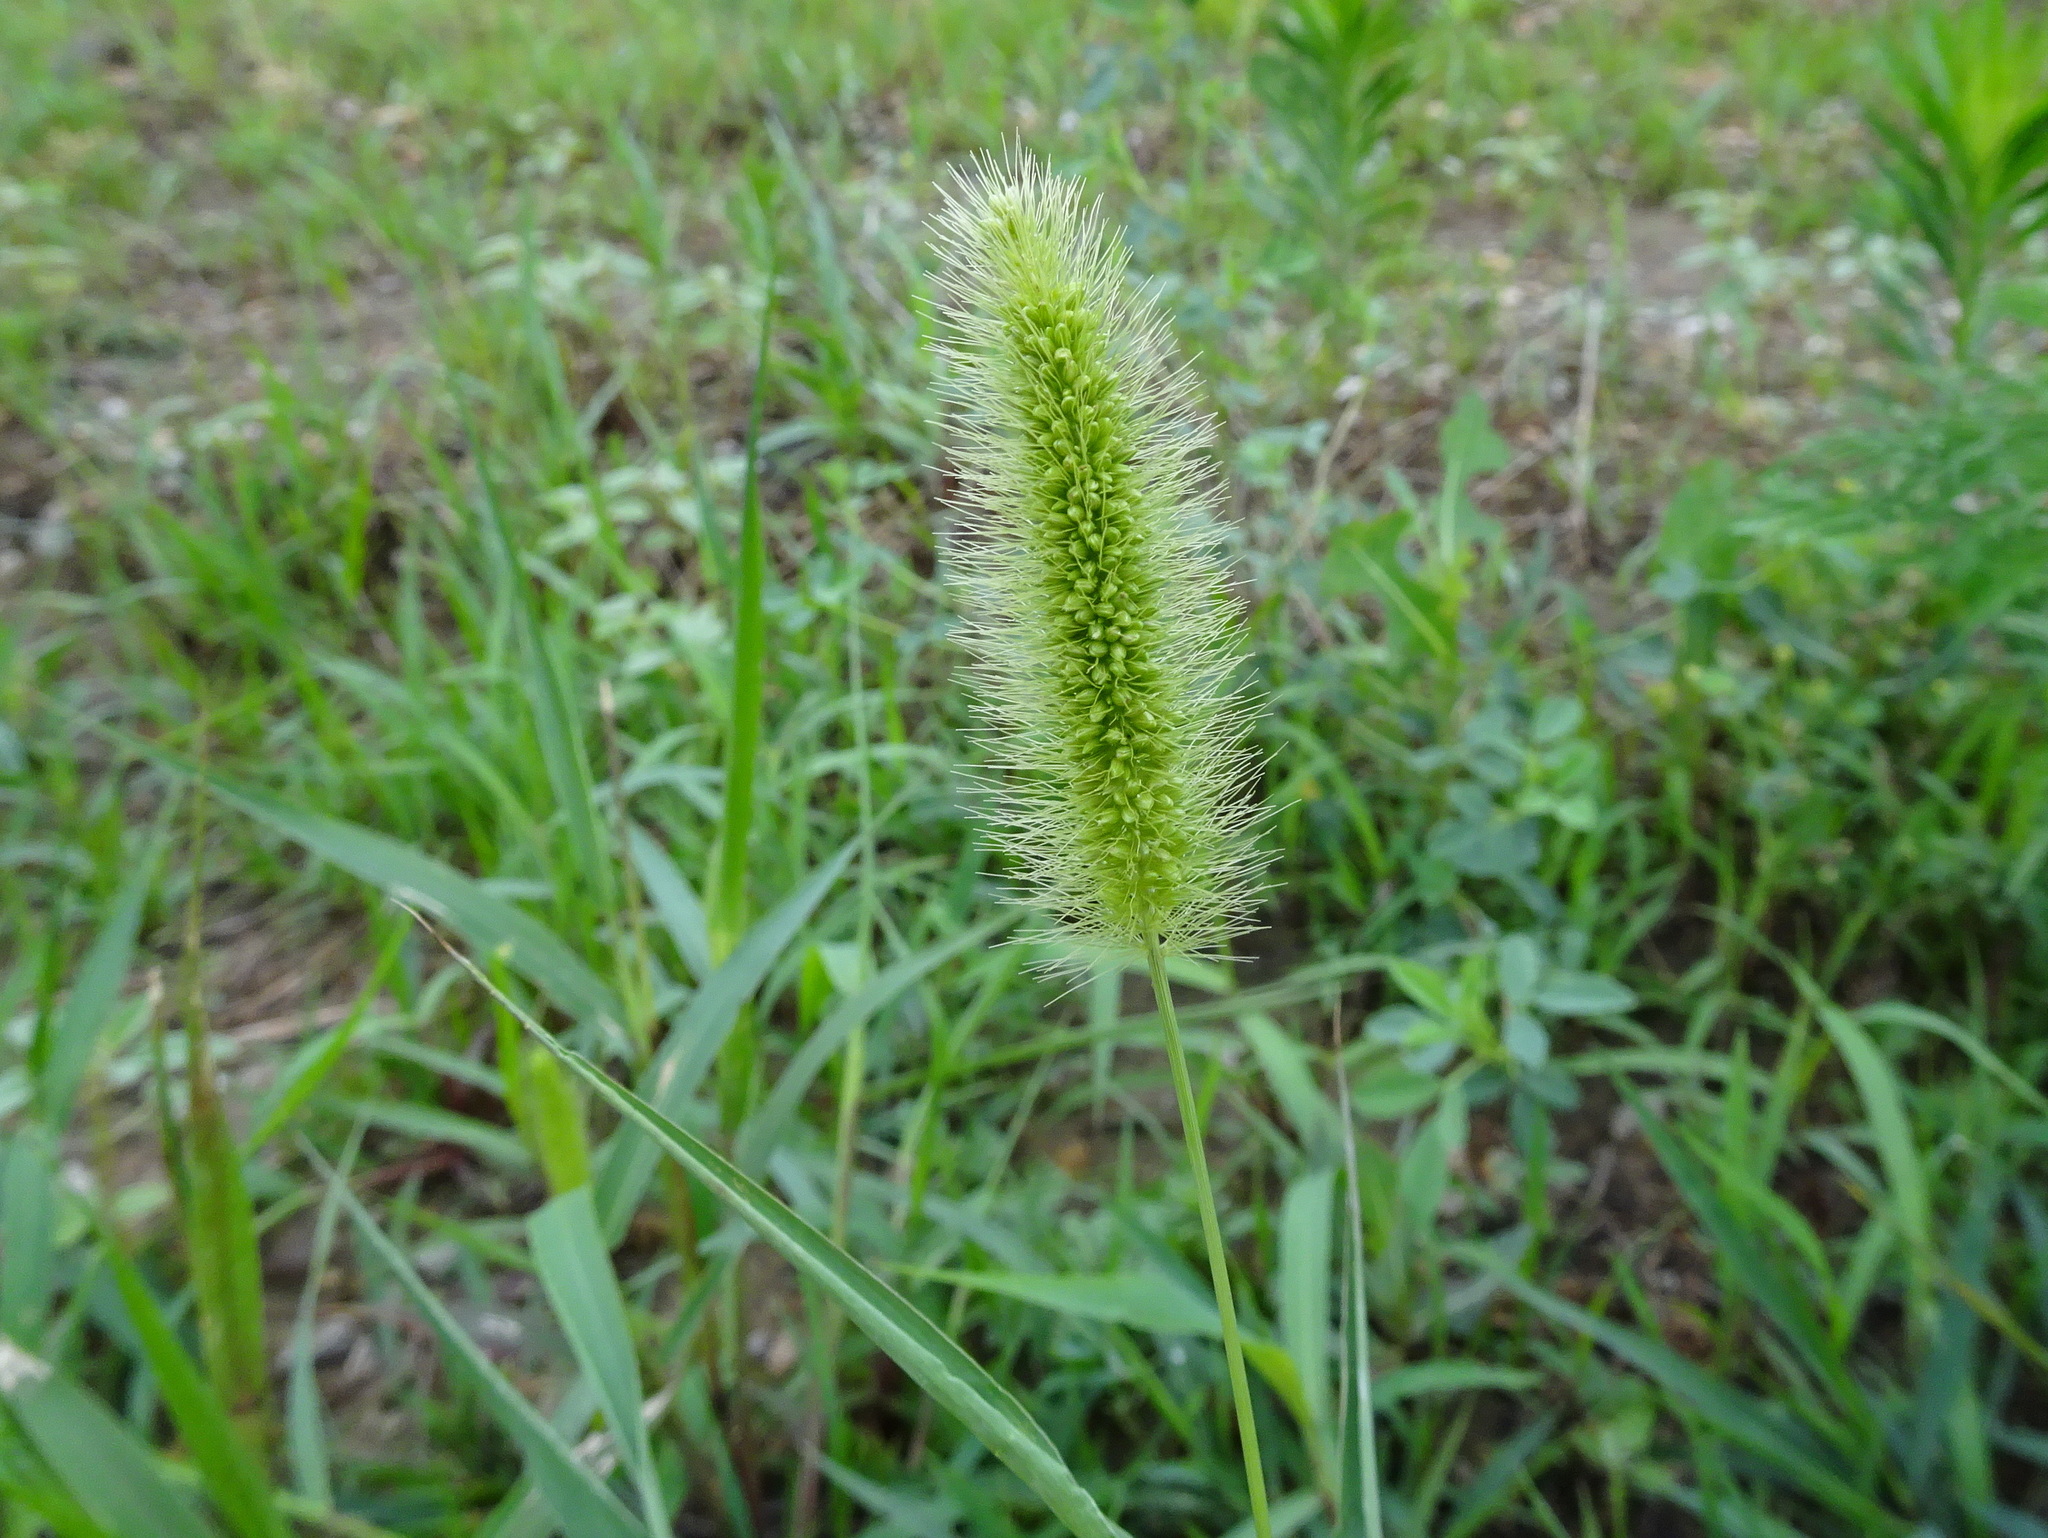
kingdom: Plantae
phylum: Tracheophyta
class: Liliopsida
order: Poales
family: Poaceae
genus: Setaria
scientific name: Setaria viridis
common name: Green bristlegrass
